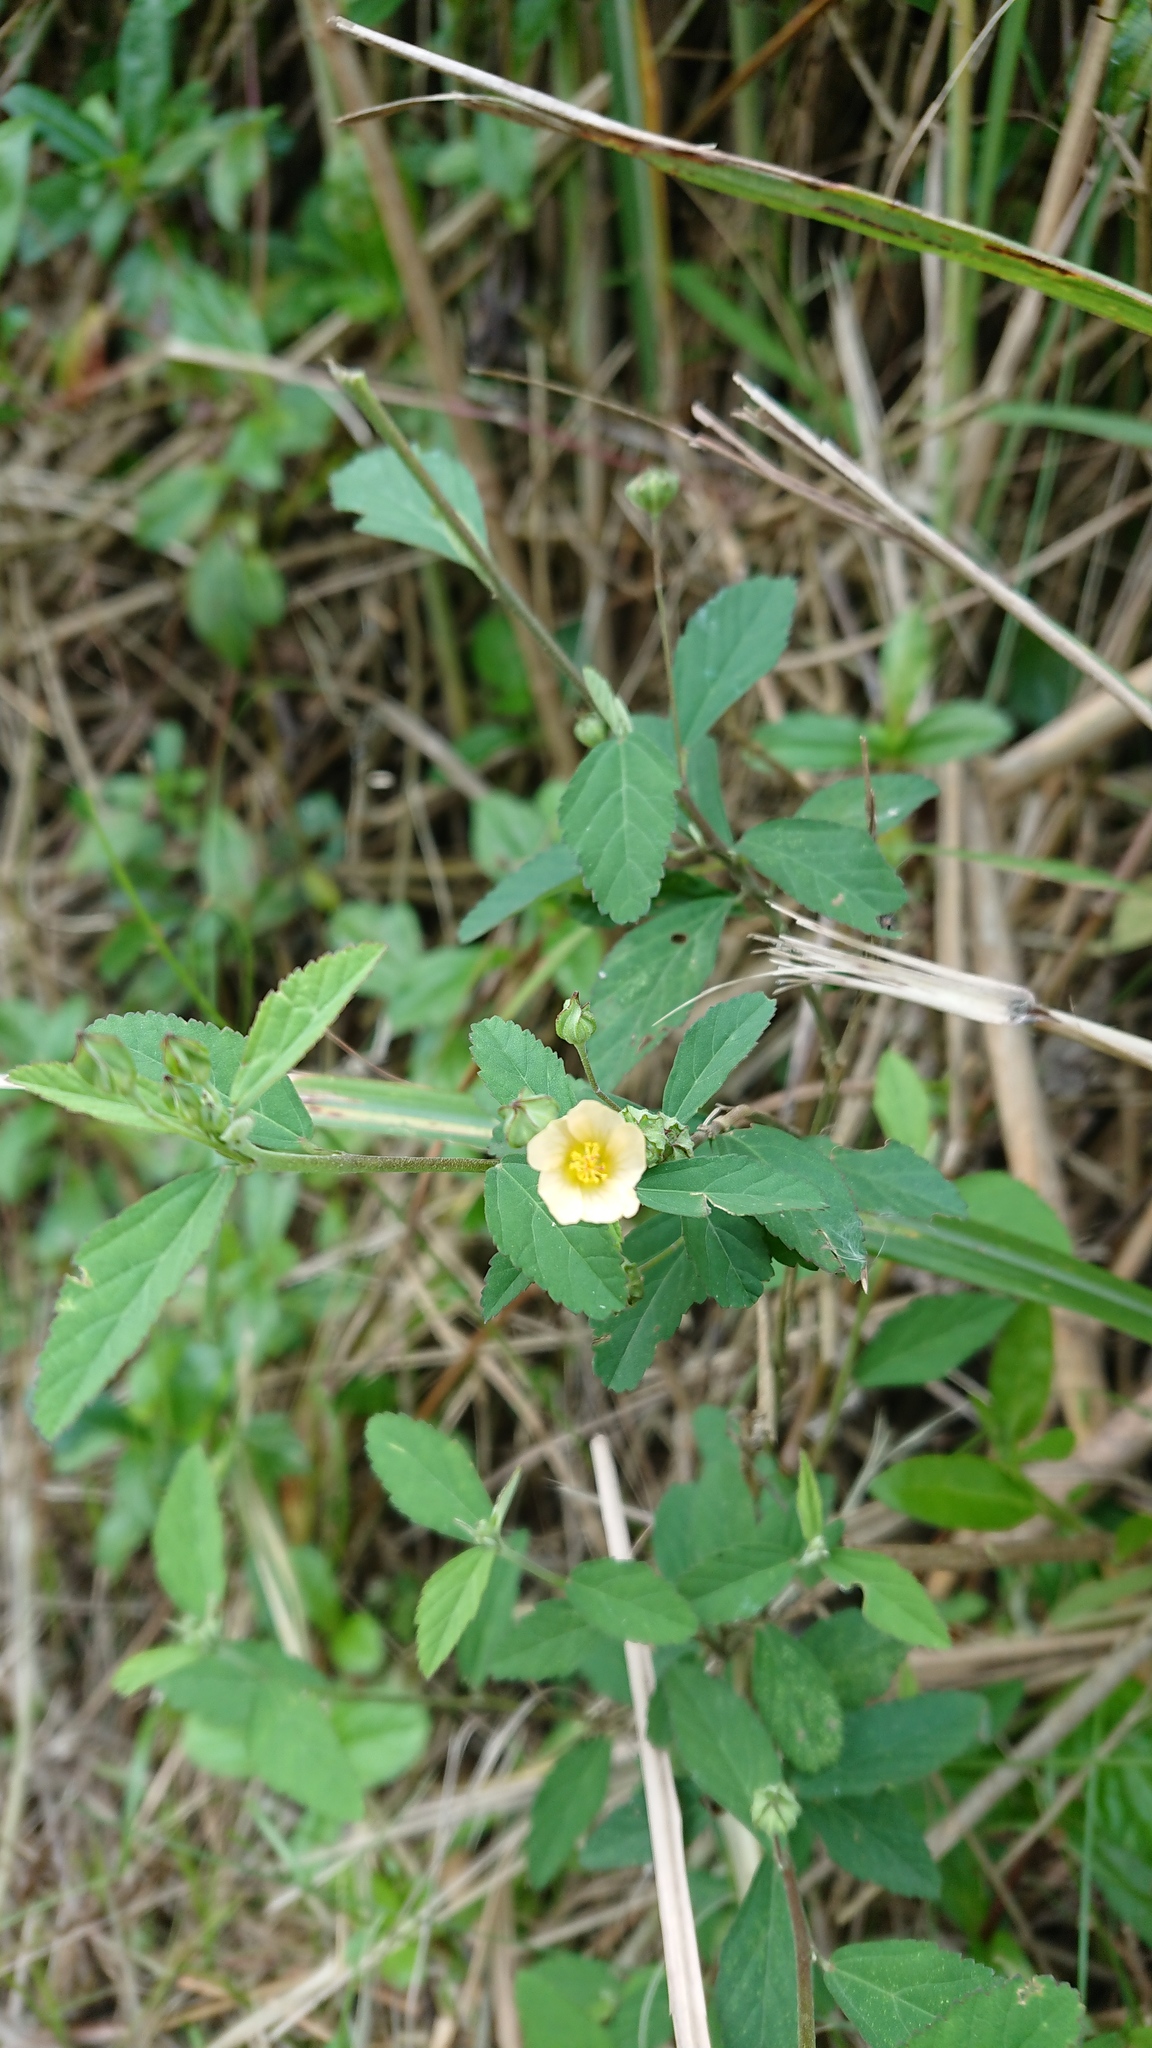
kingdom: Plantae
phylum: Tracheophyta
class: Magnoliopsida
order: Malvales
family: Malvaceae
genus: Sida
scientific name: Sida rhombifolia
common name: Queensland-hemp
